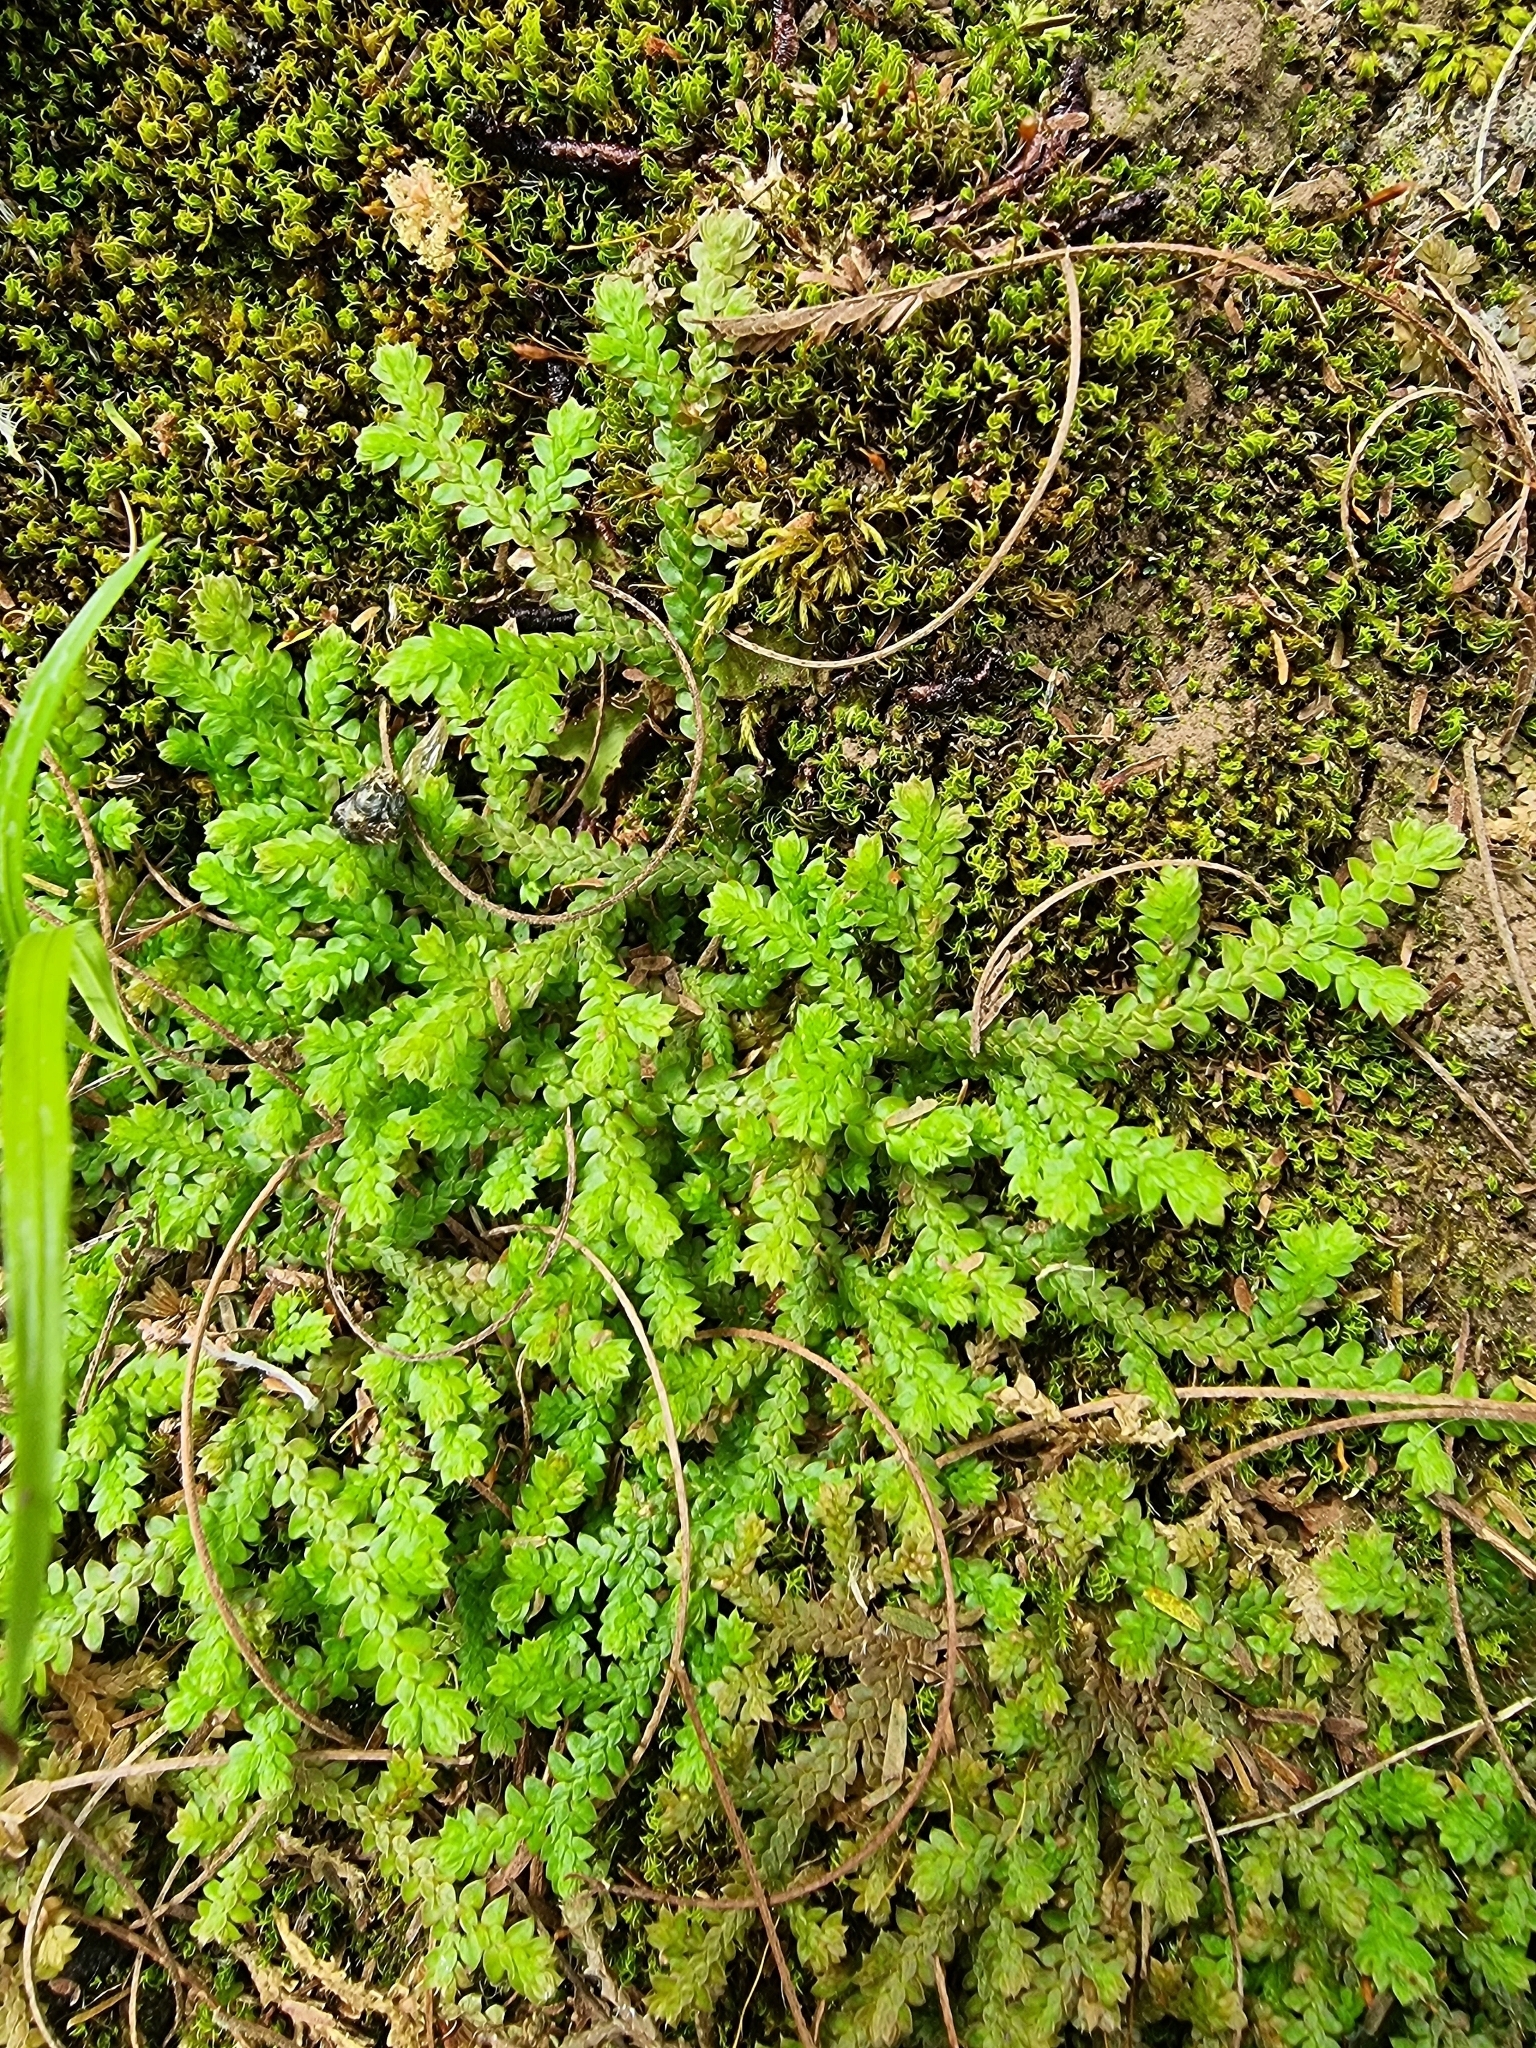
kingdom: Plantae
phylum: Tracheophyta
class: Lycopodiopsida
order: Selaginellales
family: Selaginellaceae
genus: Selaginella
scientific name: Selaginella denticulata
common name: Toothed-leaved clubmoss
